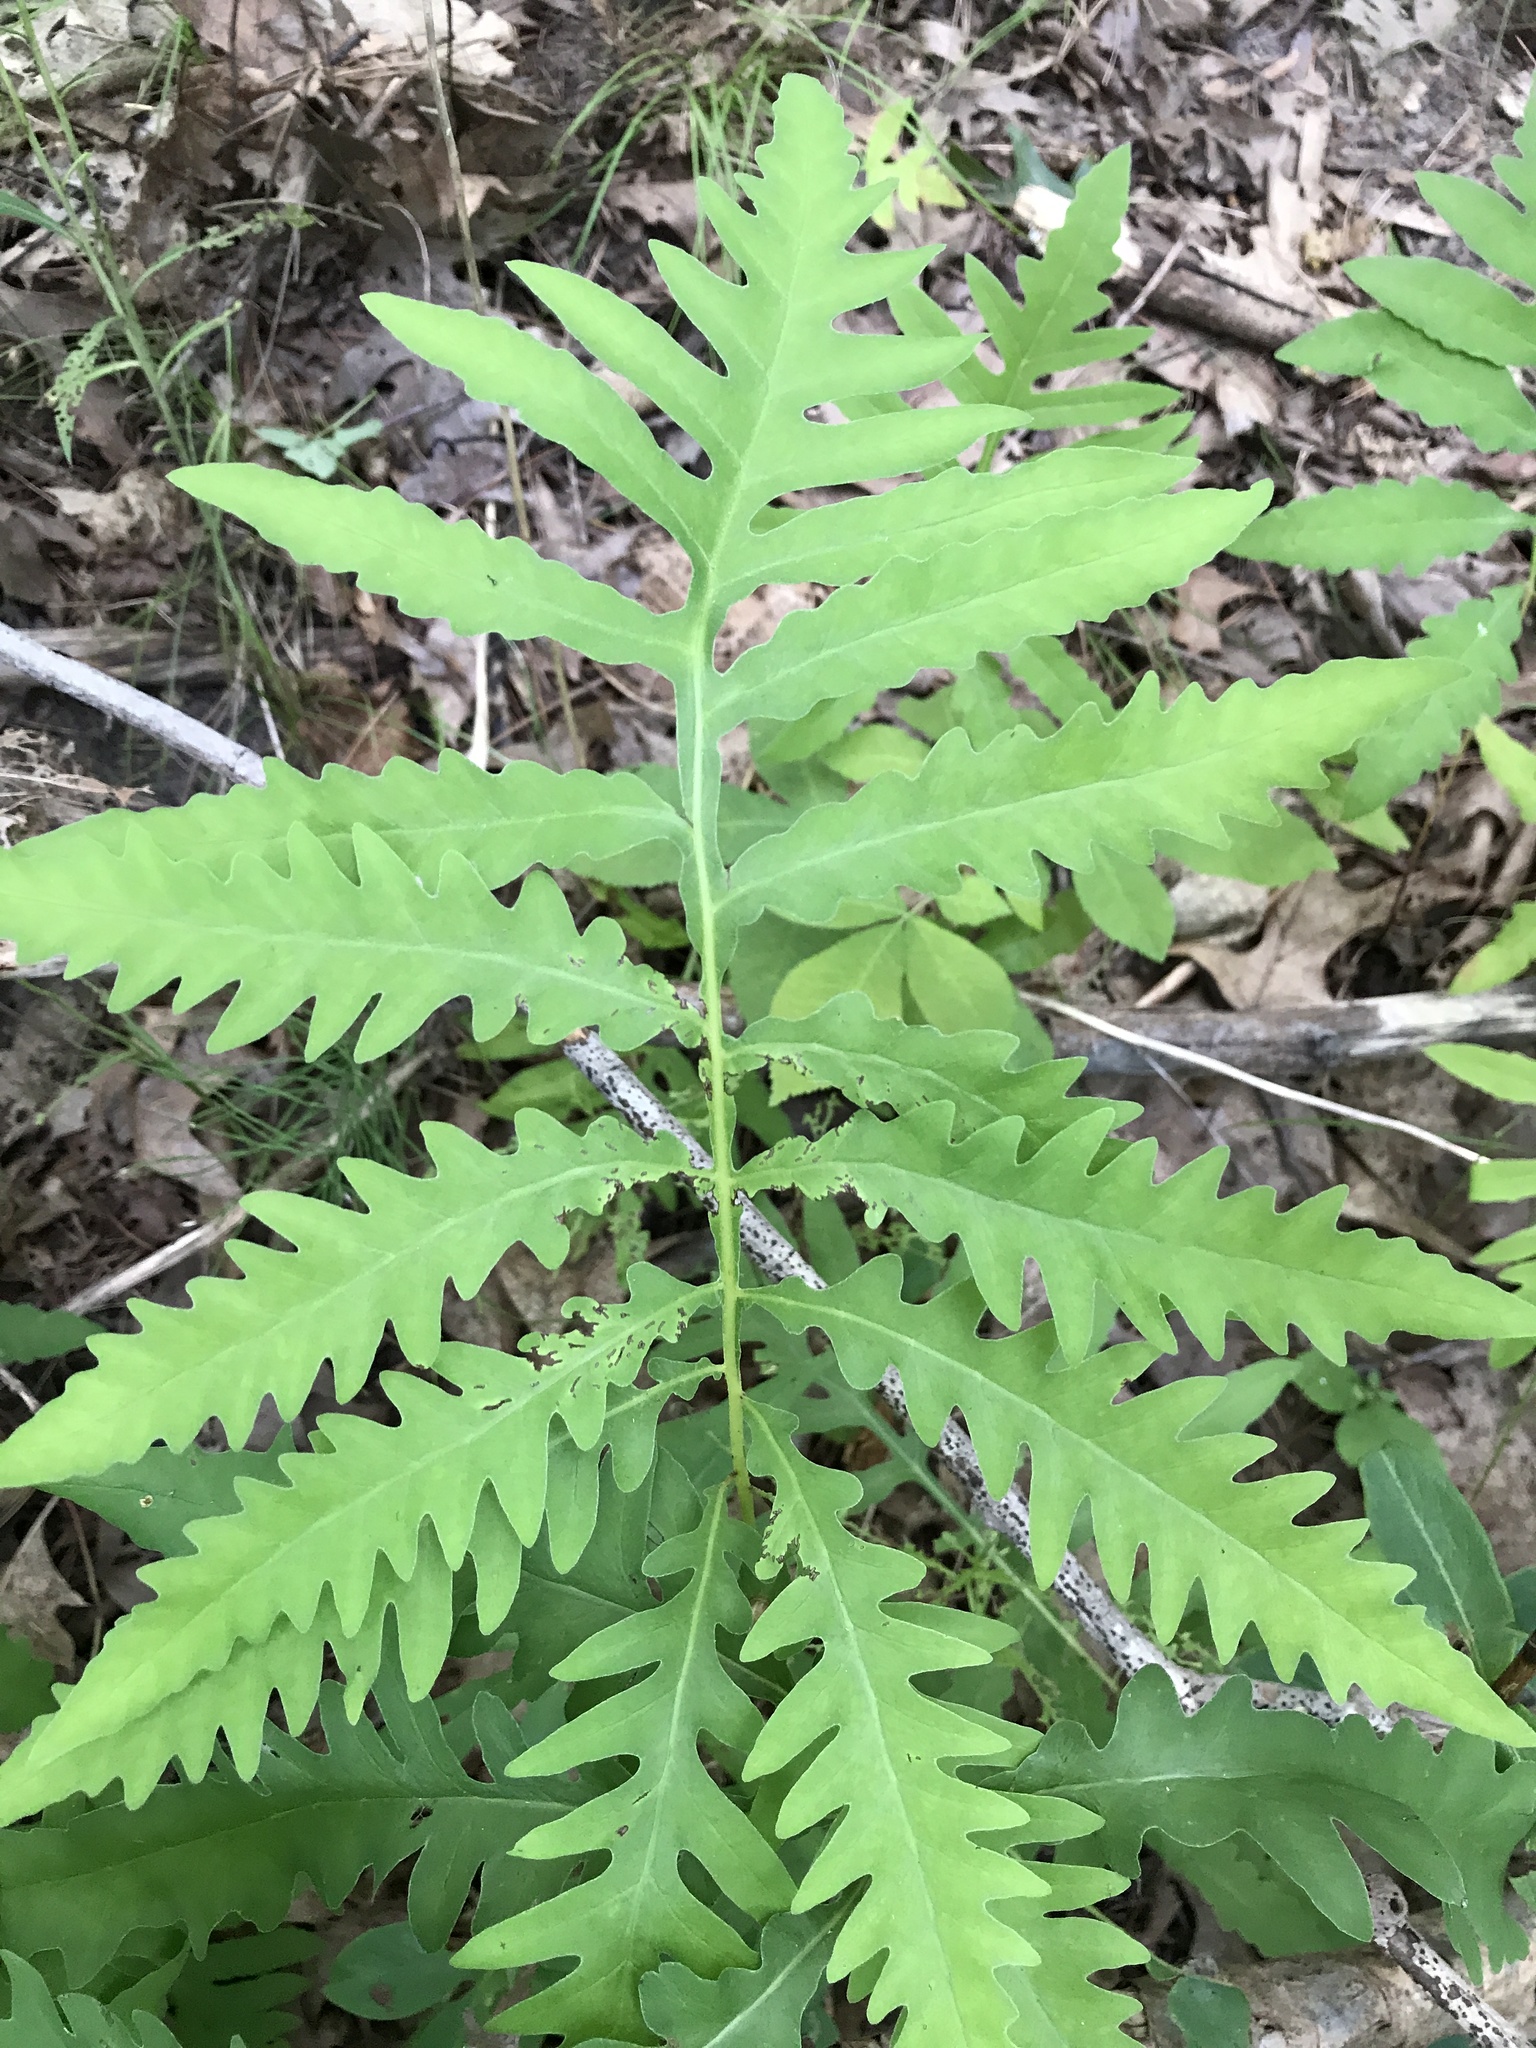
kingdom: Plantae
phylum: Tracheophyta
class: Polypodiopsida
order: Polypodiales
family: Onocleaceae
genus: Onoclea
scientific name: Onoclea sensibilis
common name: Sensitive fern
